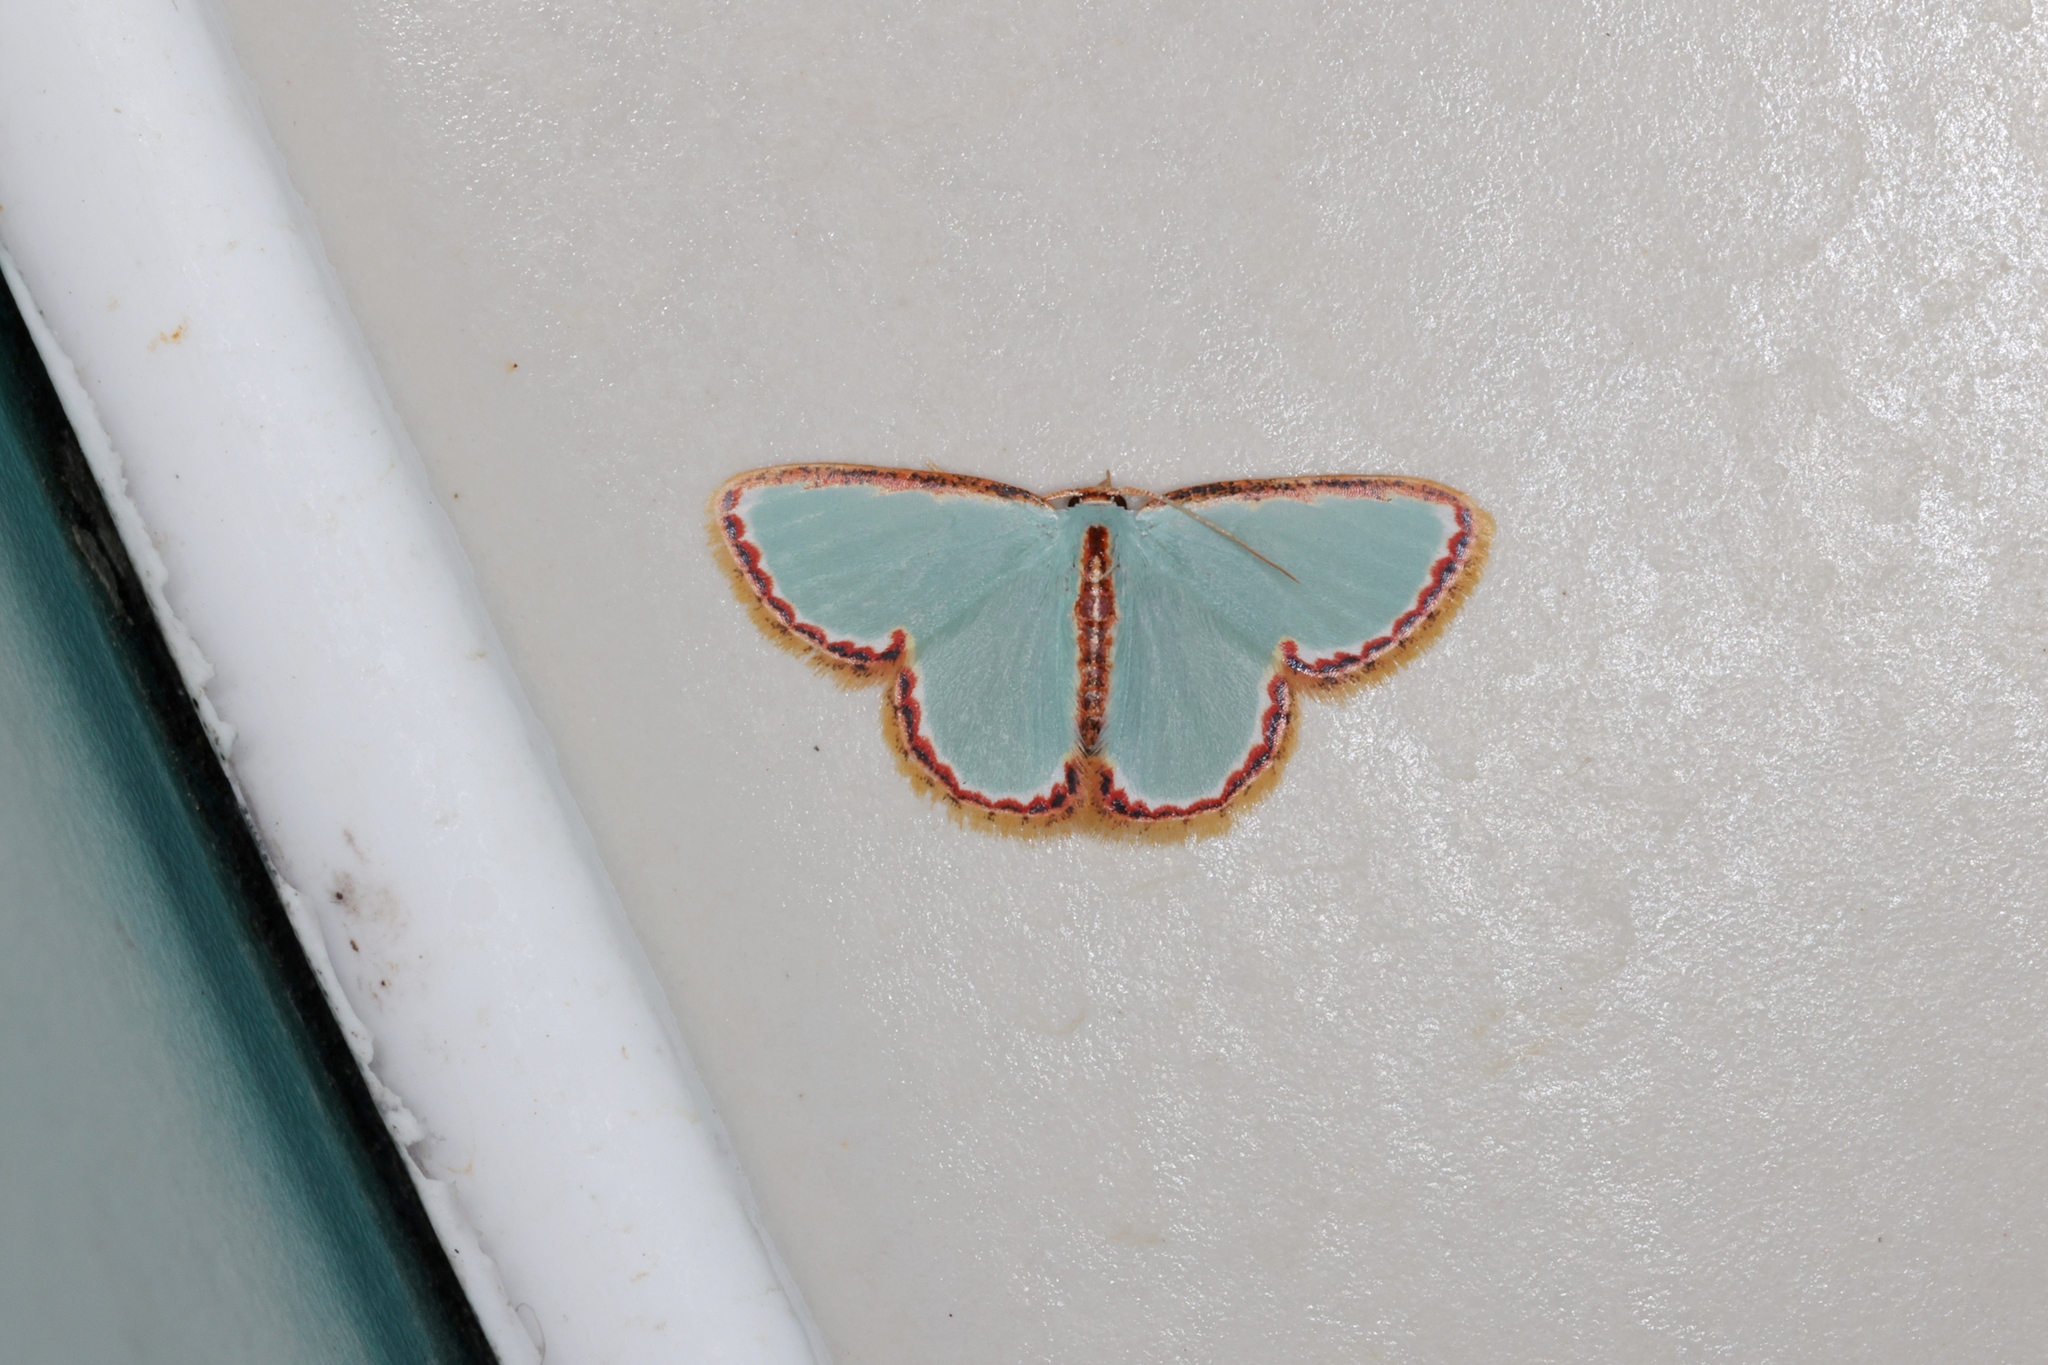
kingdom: Animalia
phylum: Arthropoda
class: Insecta
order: Lepidoptera
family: Geometridae
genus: Comostola
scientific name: Comostola pyrrhogona
